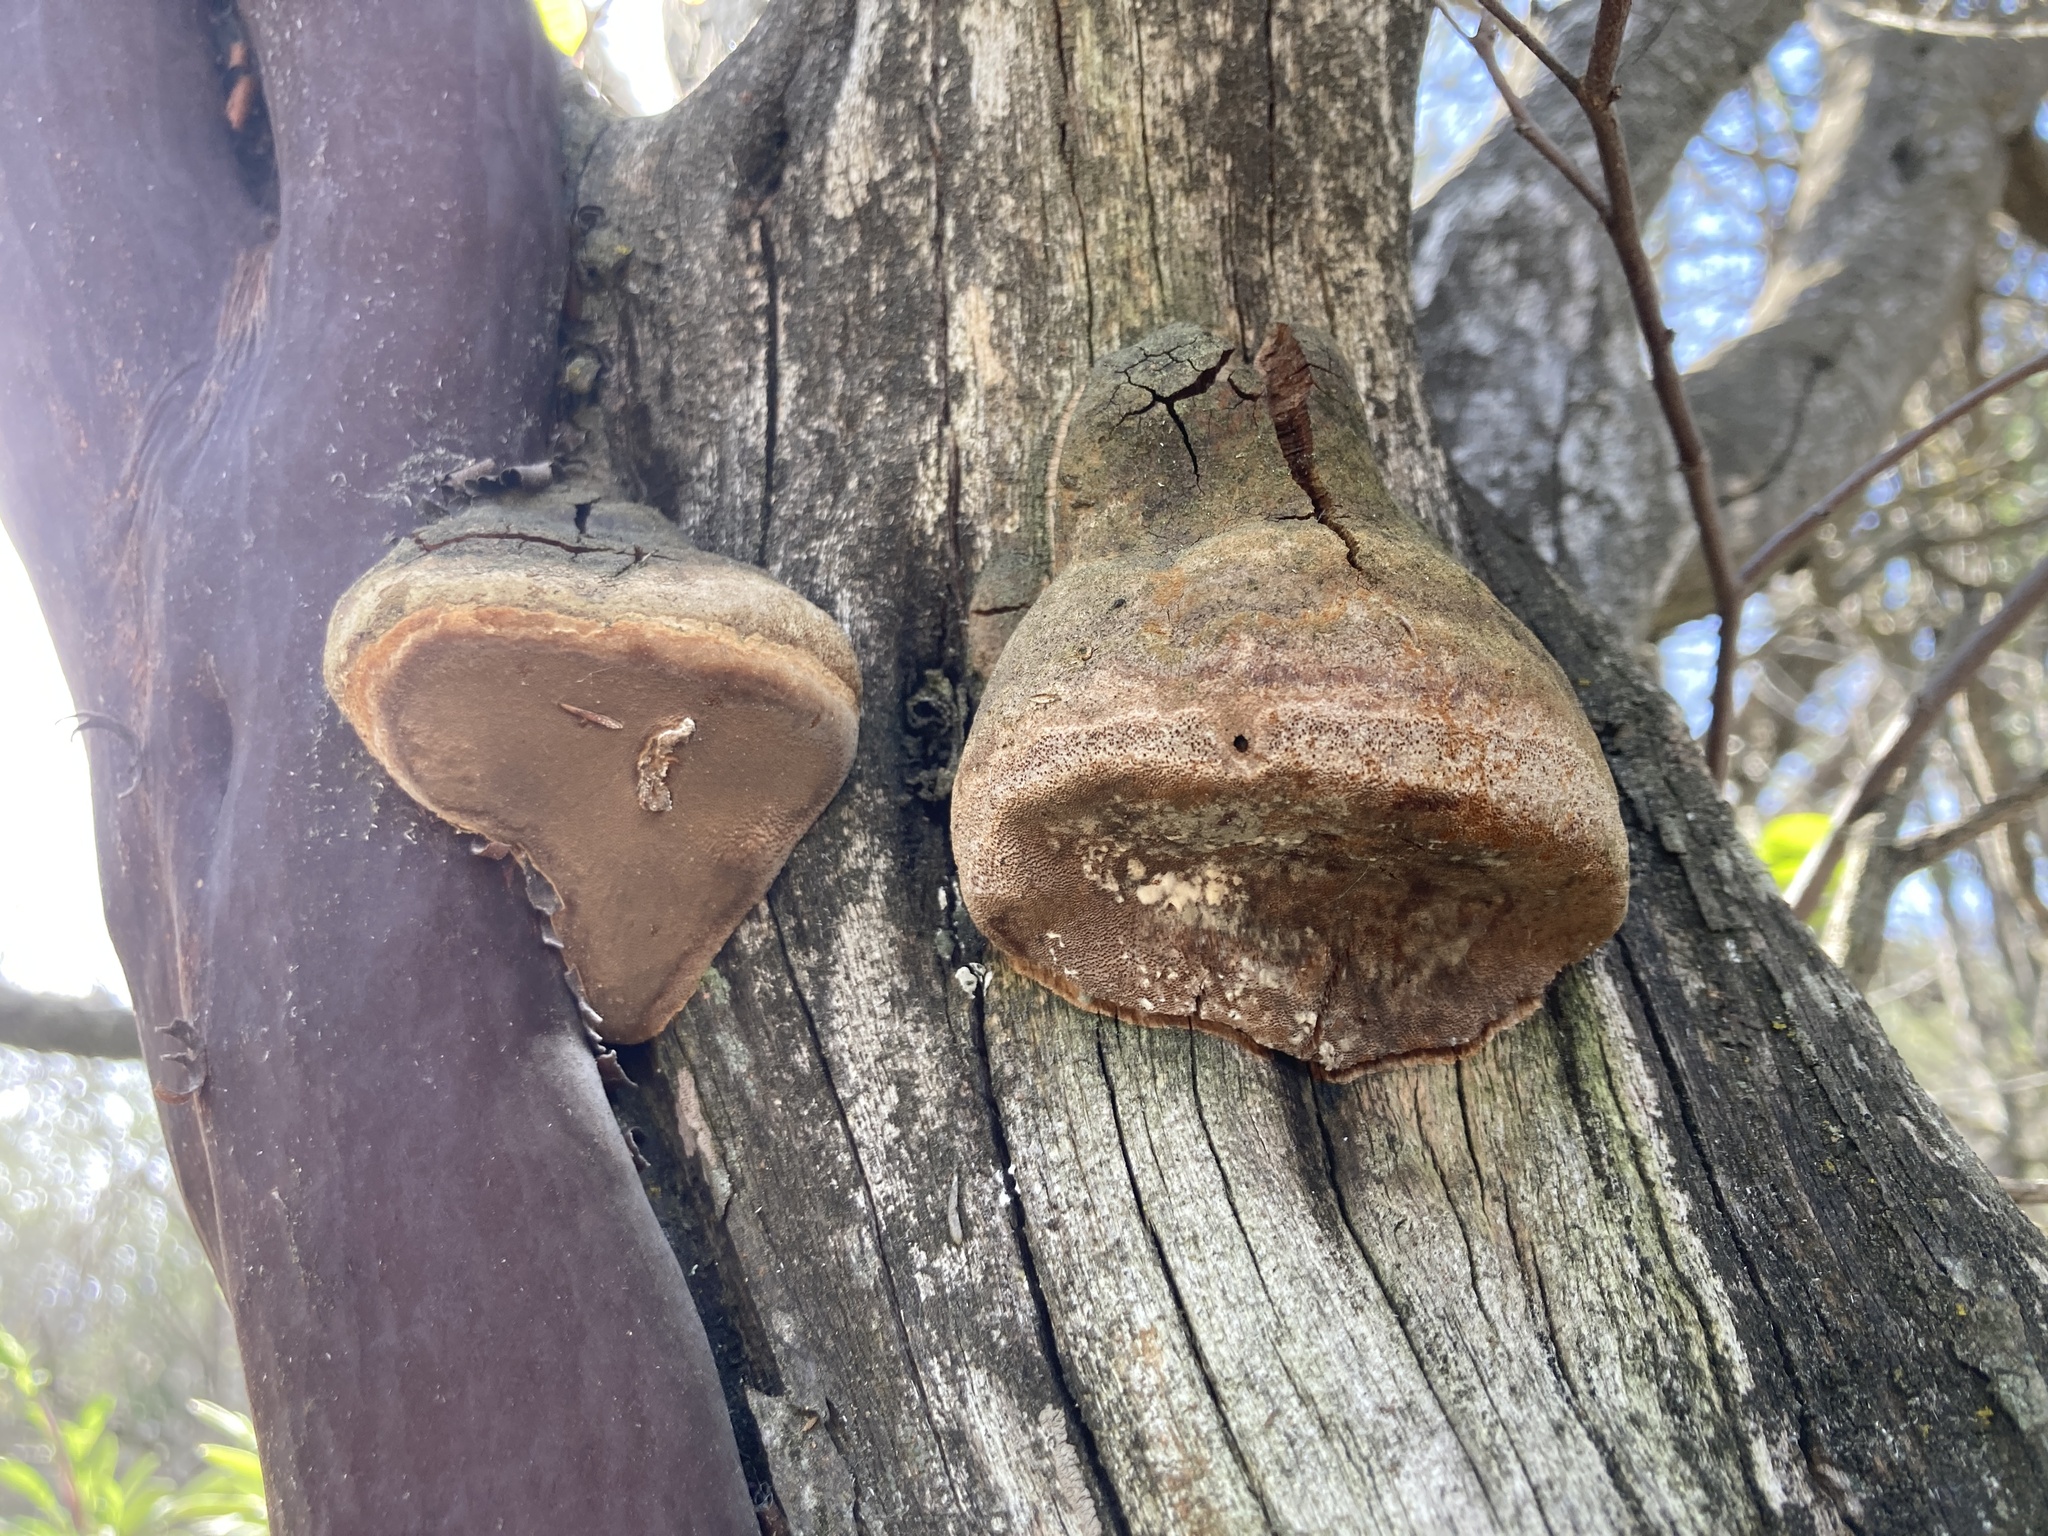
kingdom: Fungi
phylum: Basidiomycota
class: Agaricomycetes
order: Polyporales
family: Polyporaceae
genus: Fomes
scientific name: Fomes arctostaphyli
